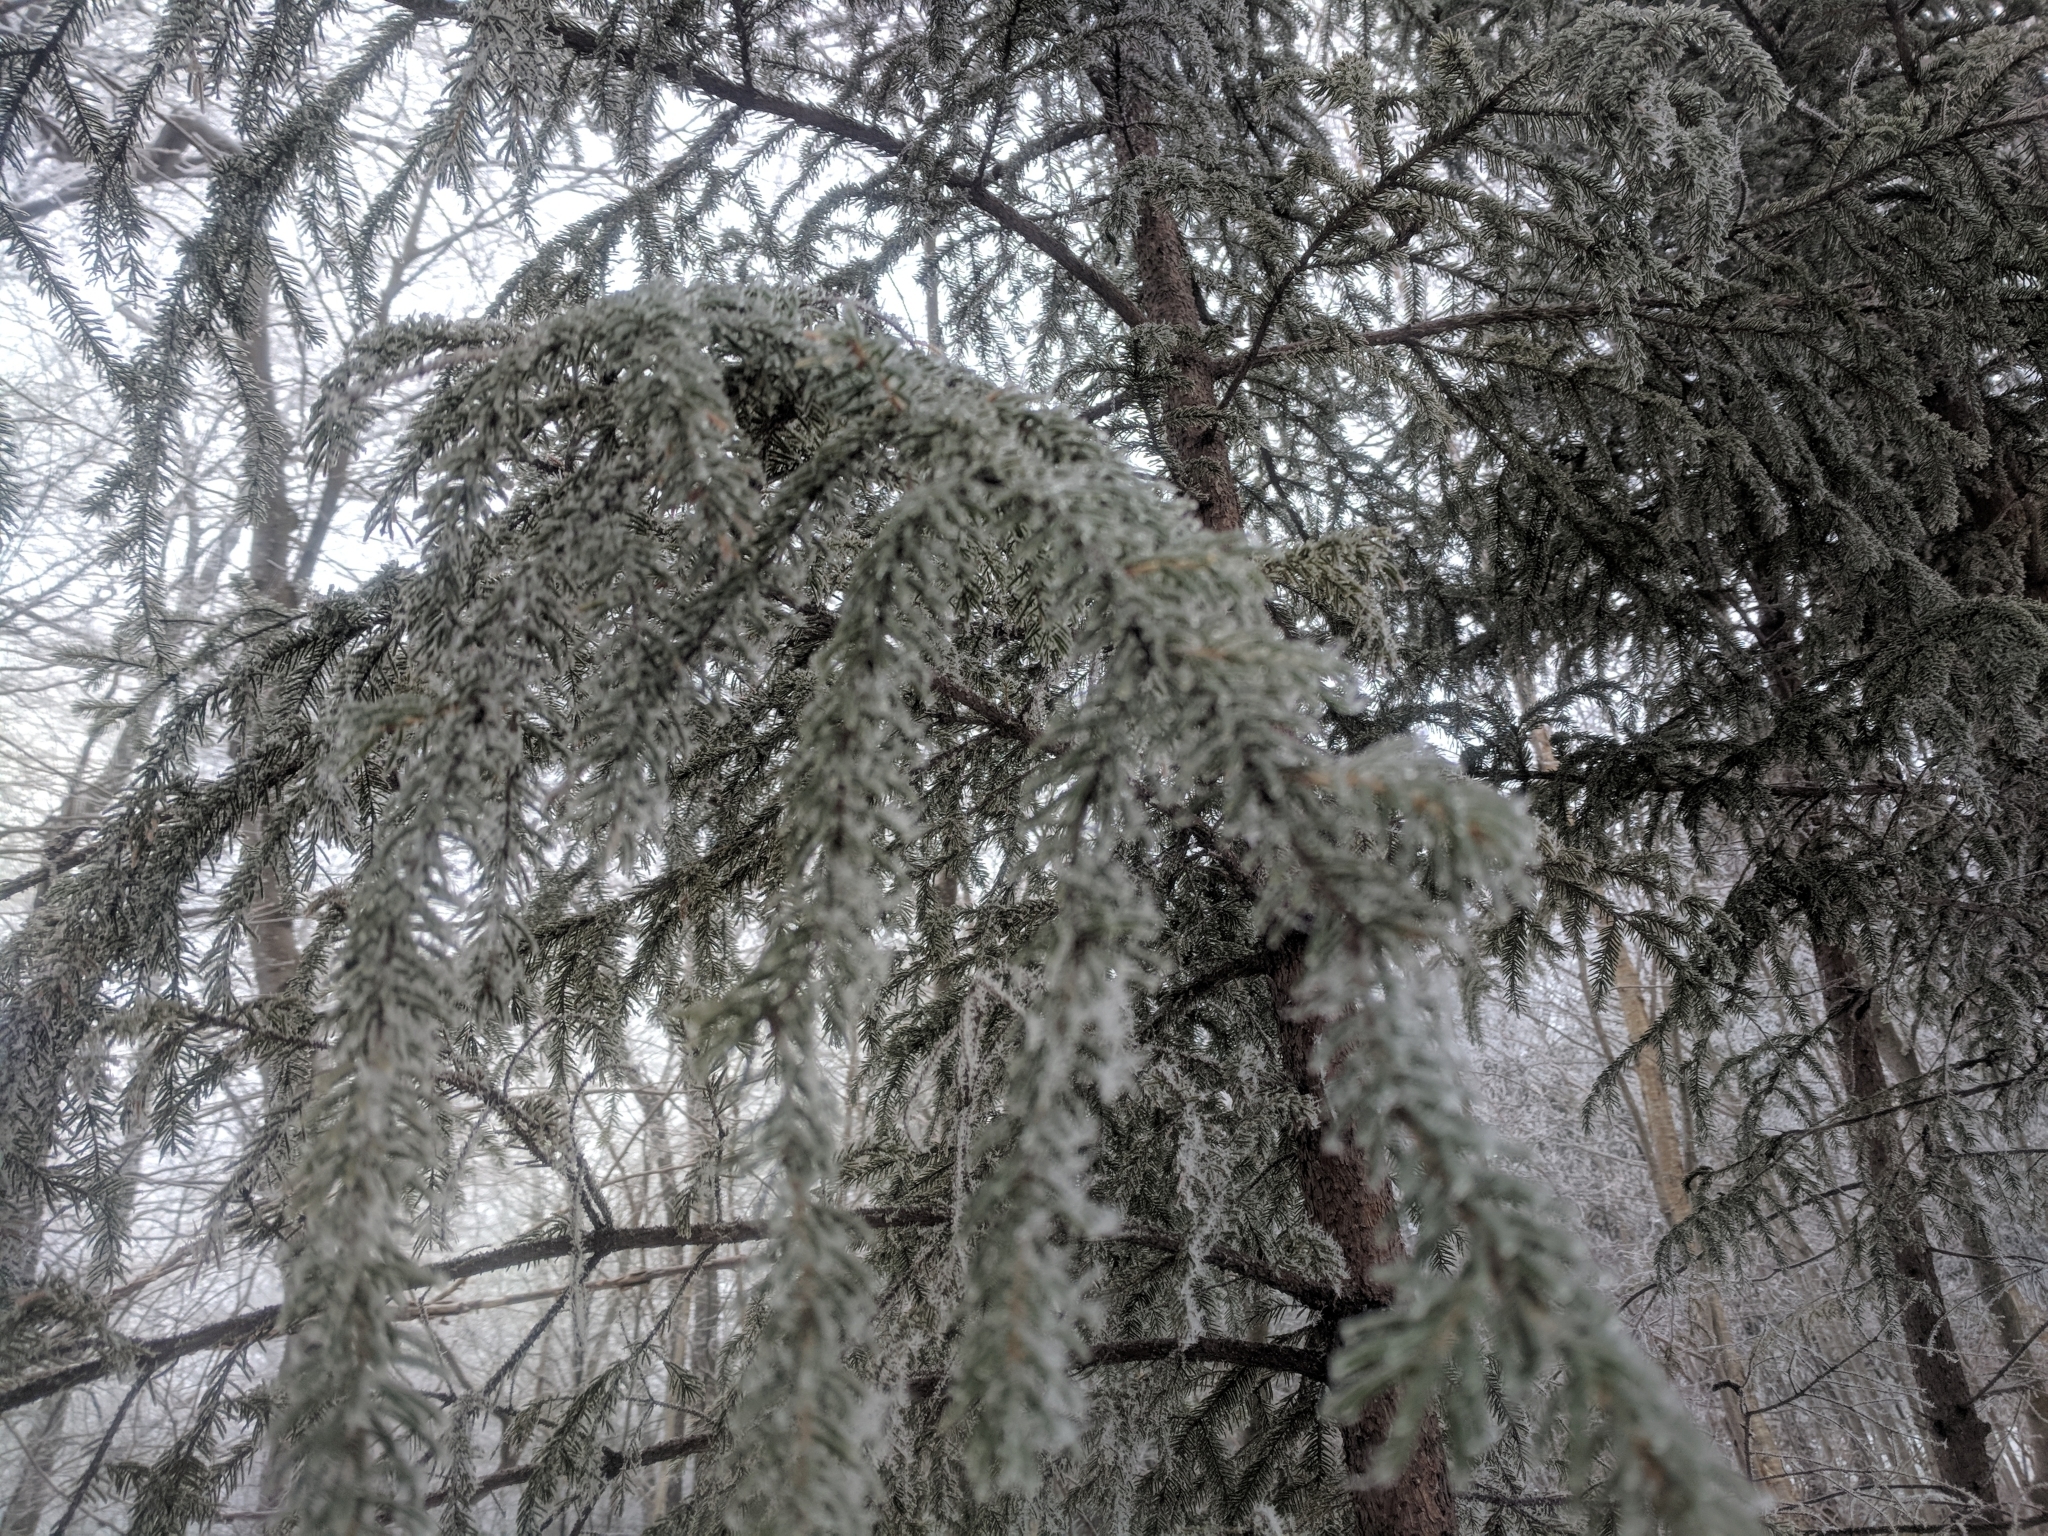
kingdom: Plantae
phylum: Tracheophyta
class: Pinopsida
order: Pinales
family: Pinaceae
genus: Picea
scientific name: Picea rubens
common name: Red spruce
